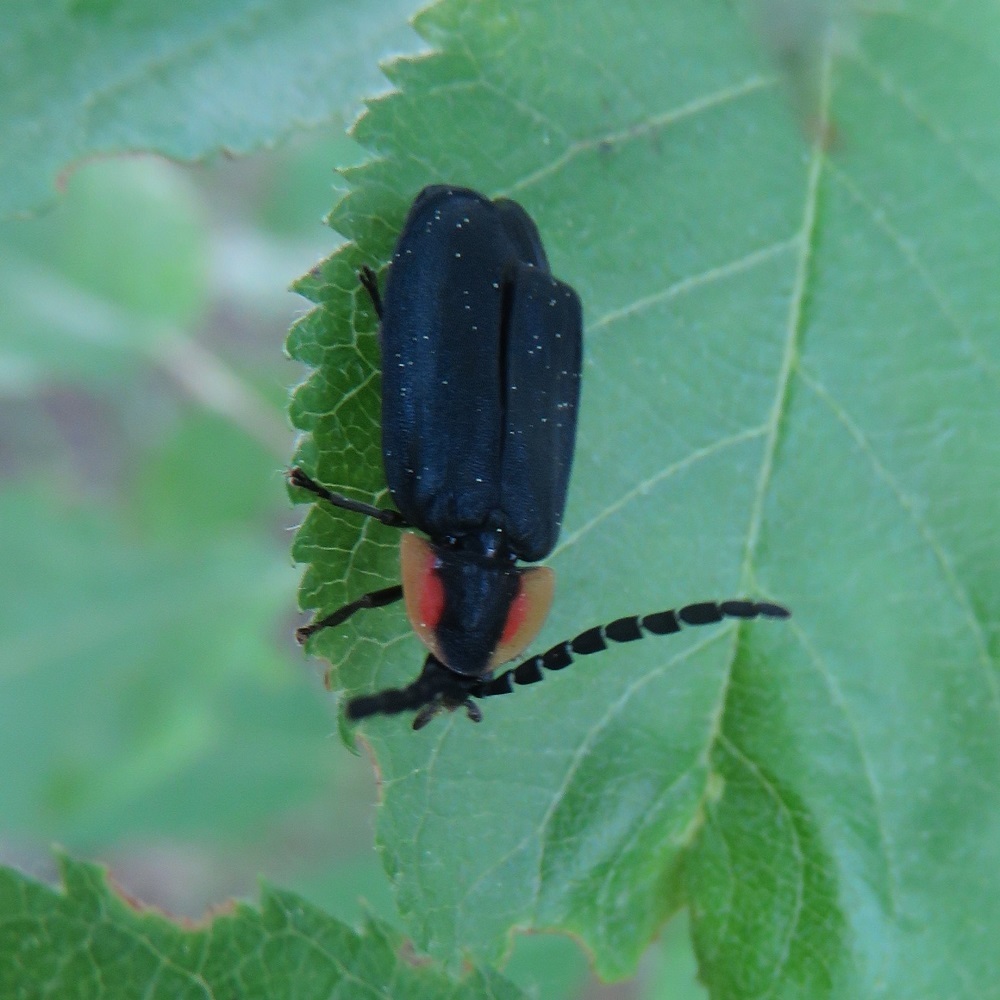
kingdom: Animalia
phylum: Arthropoda
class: Insecta
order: Coleoptera
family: Lampyridae
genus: Lucidota
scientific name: Lucidota atra
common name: Black firefly
